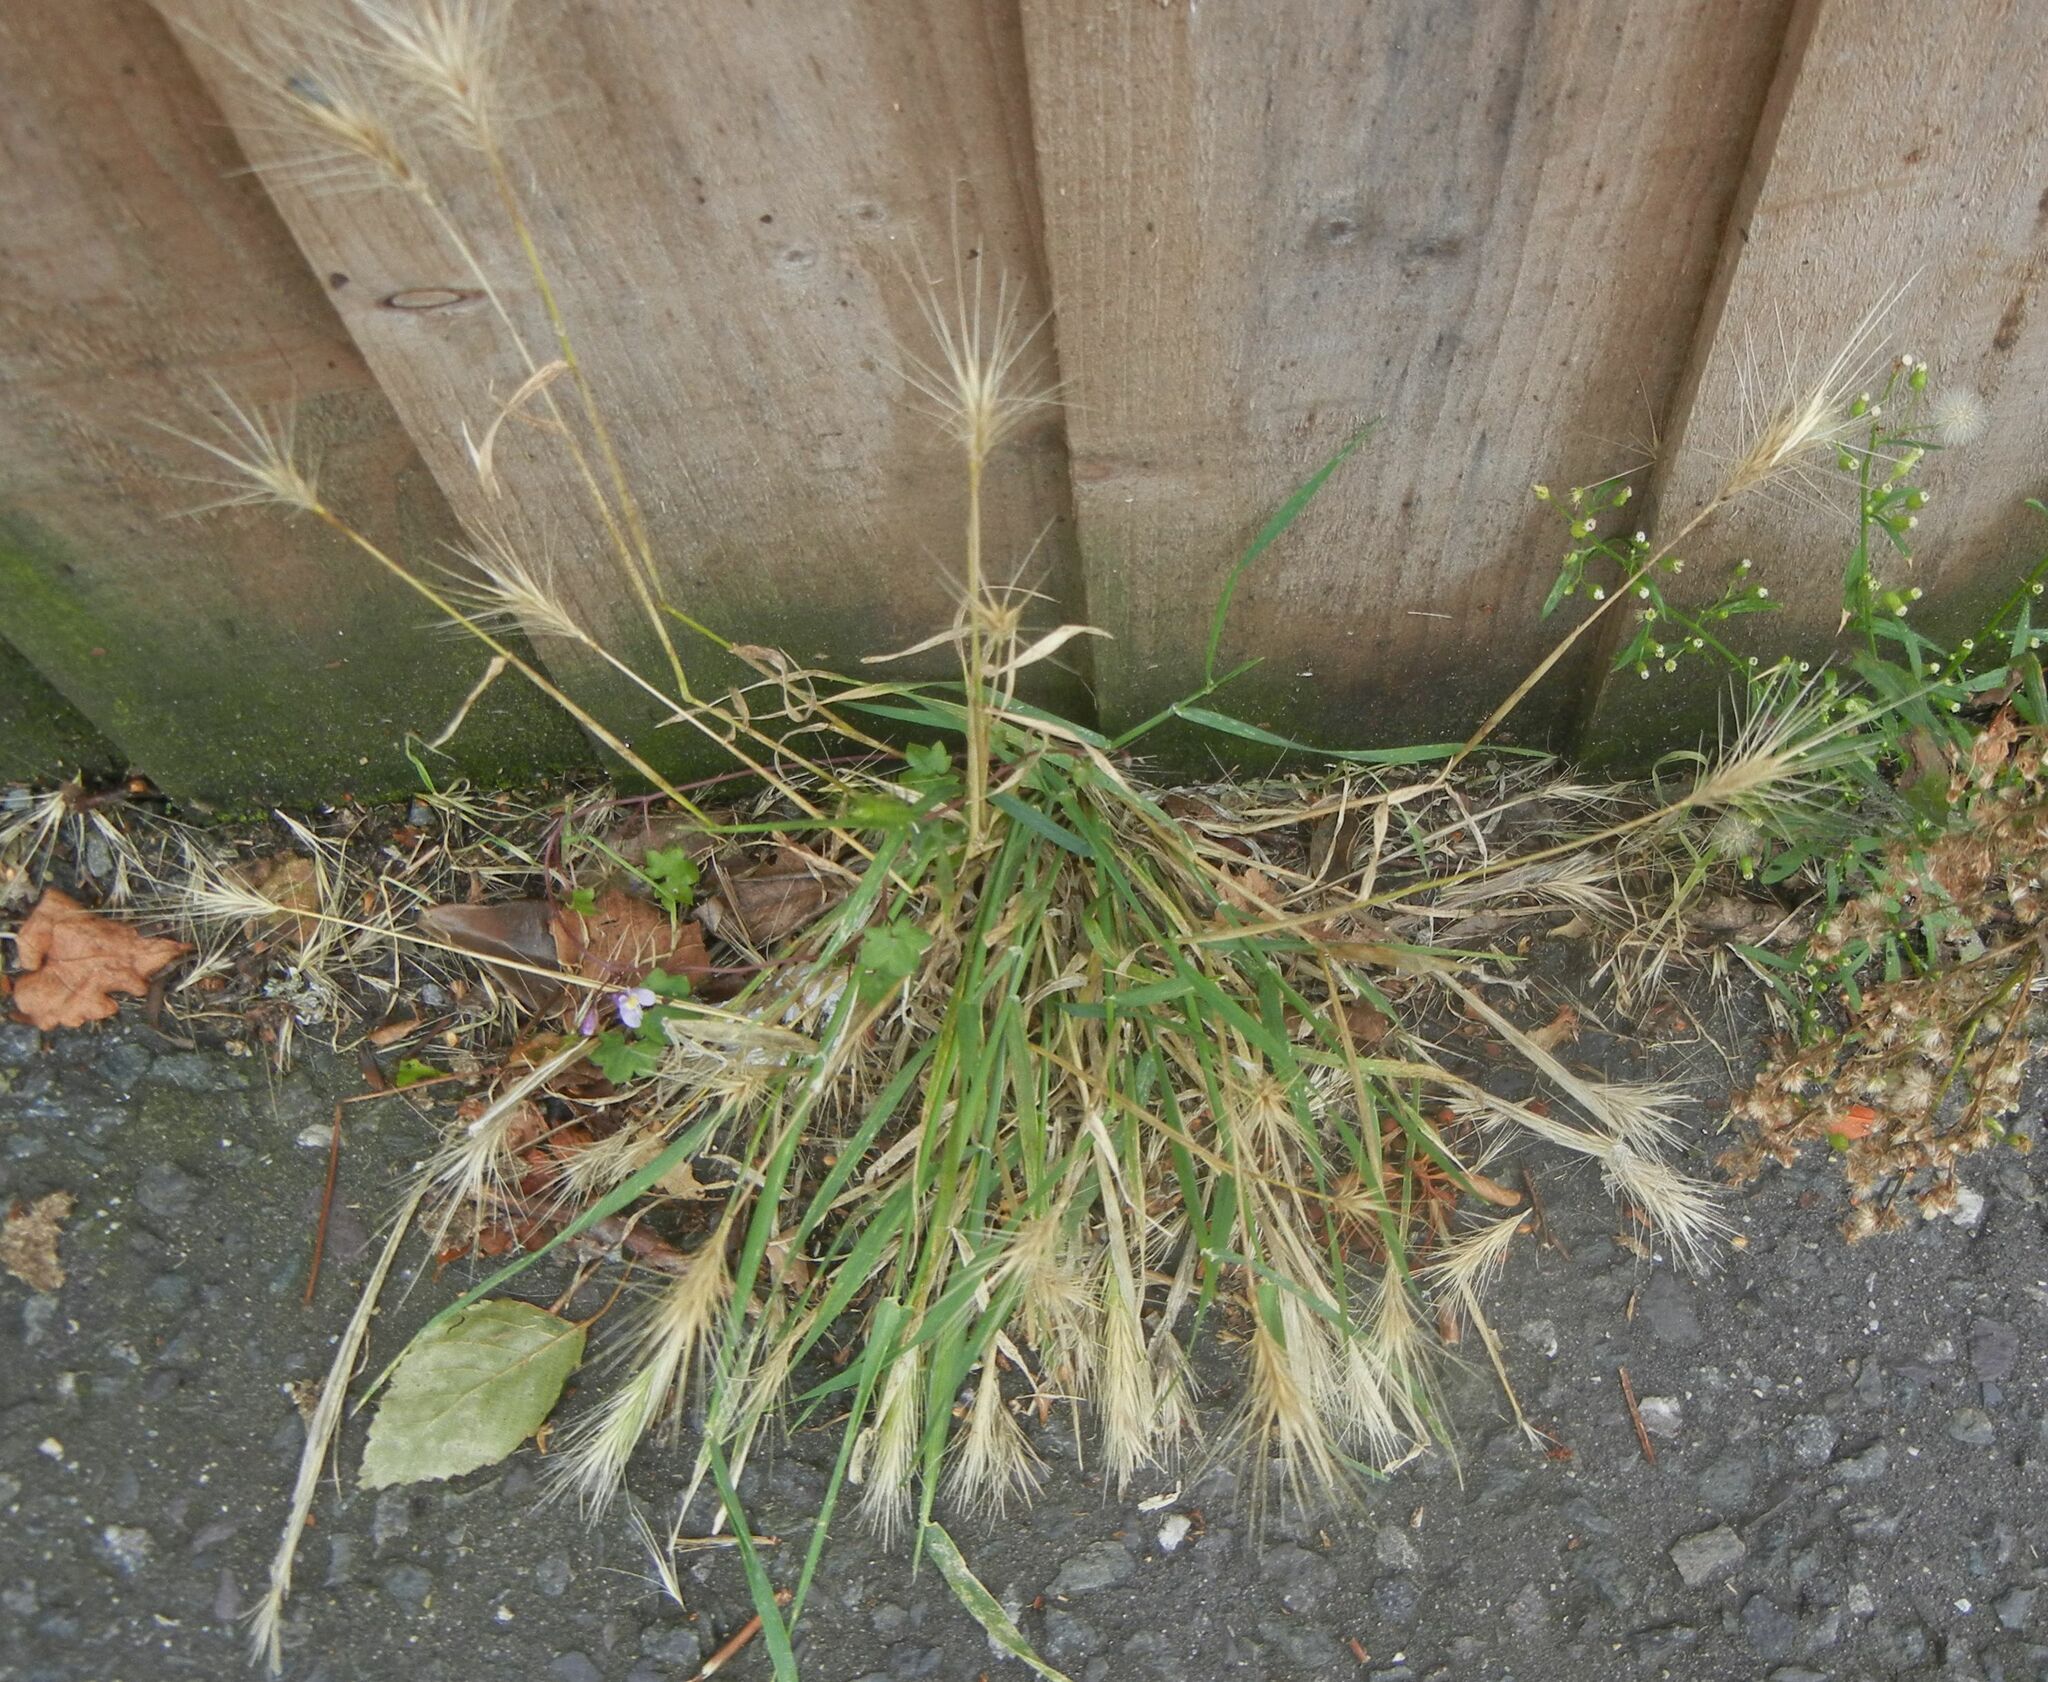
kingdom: Plantae
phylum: Tracheophyta
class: Liliopsida
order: Poales
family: Poaceae
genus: Hordeum
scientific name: Hordeum murinum
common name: Wall barley
